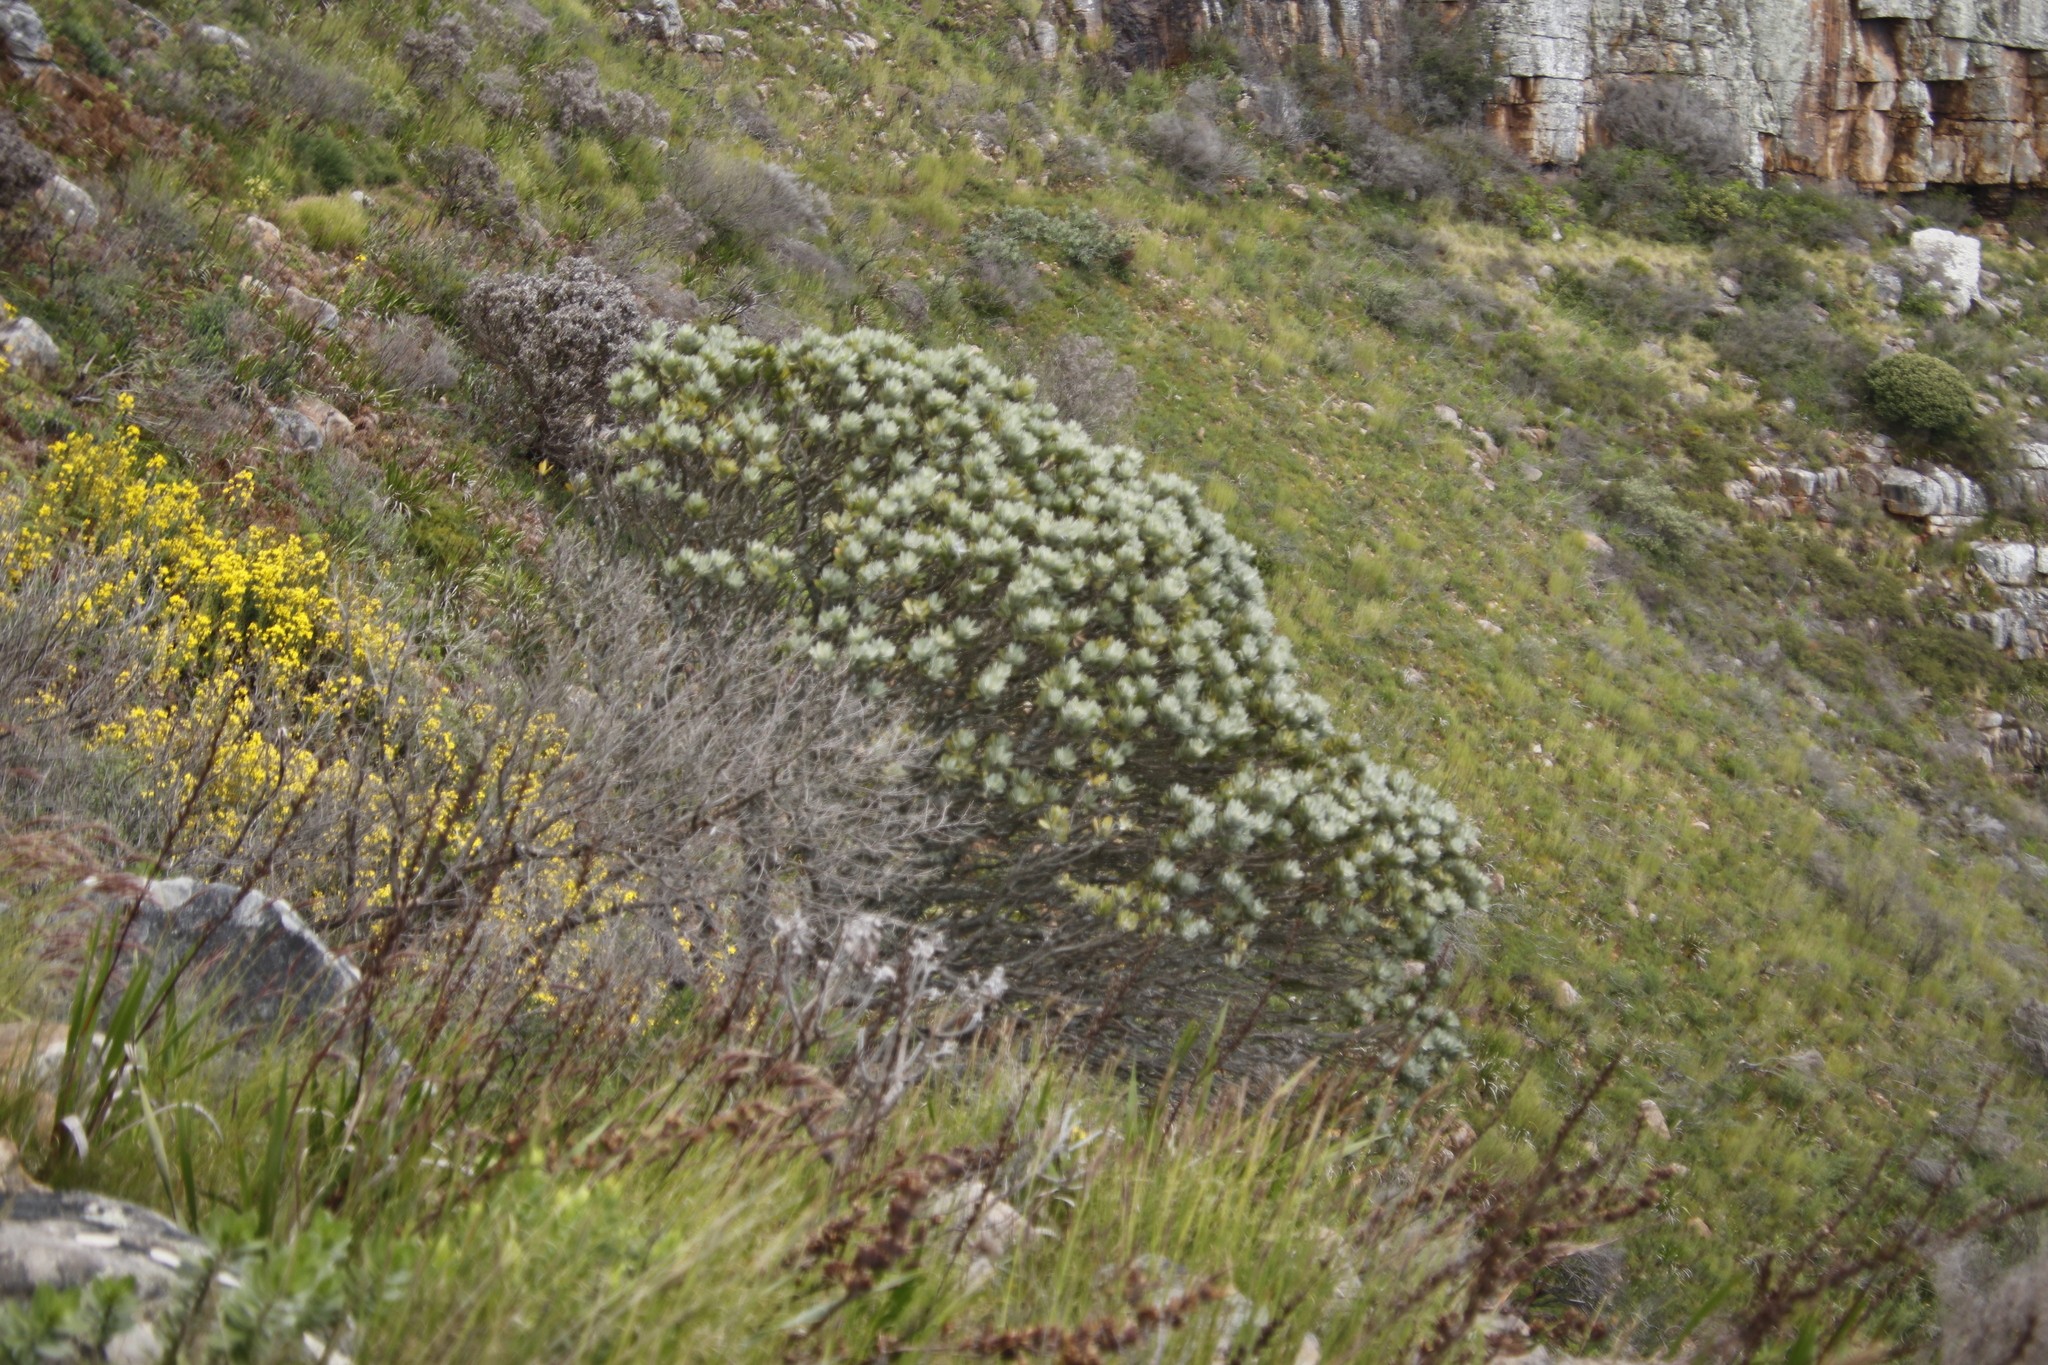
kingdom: Plantae
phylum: Tracheophyta
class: Magnoliopsida
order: Proteales
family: Proteaceae
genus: Leucospermum
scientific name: Leucospermum conocarpodendron
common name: Tree pincushion
